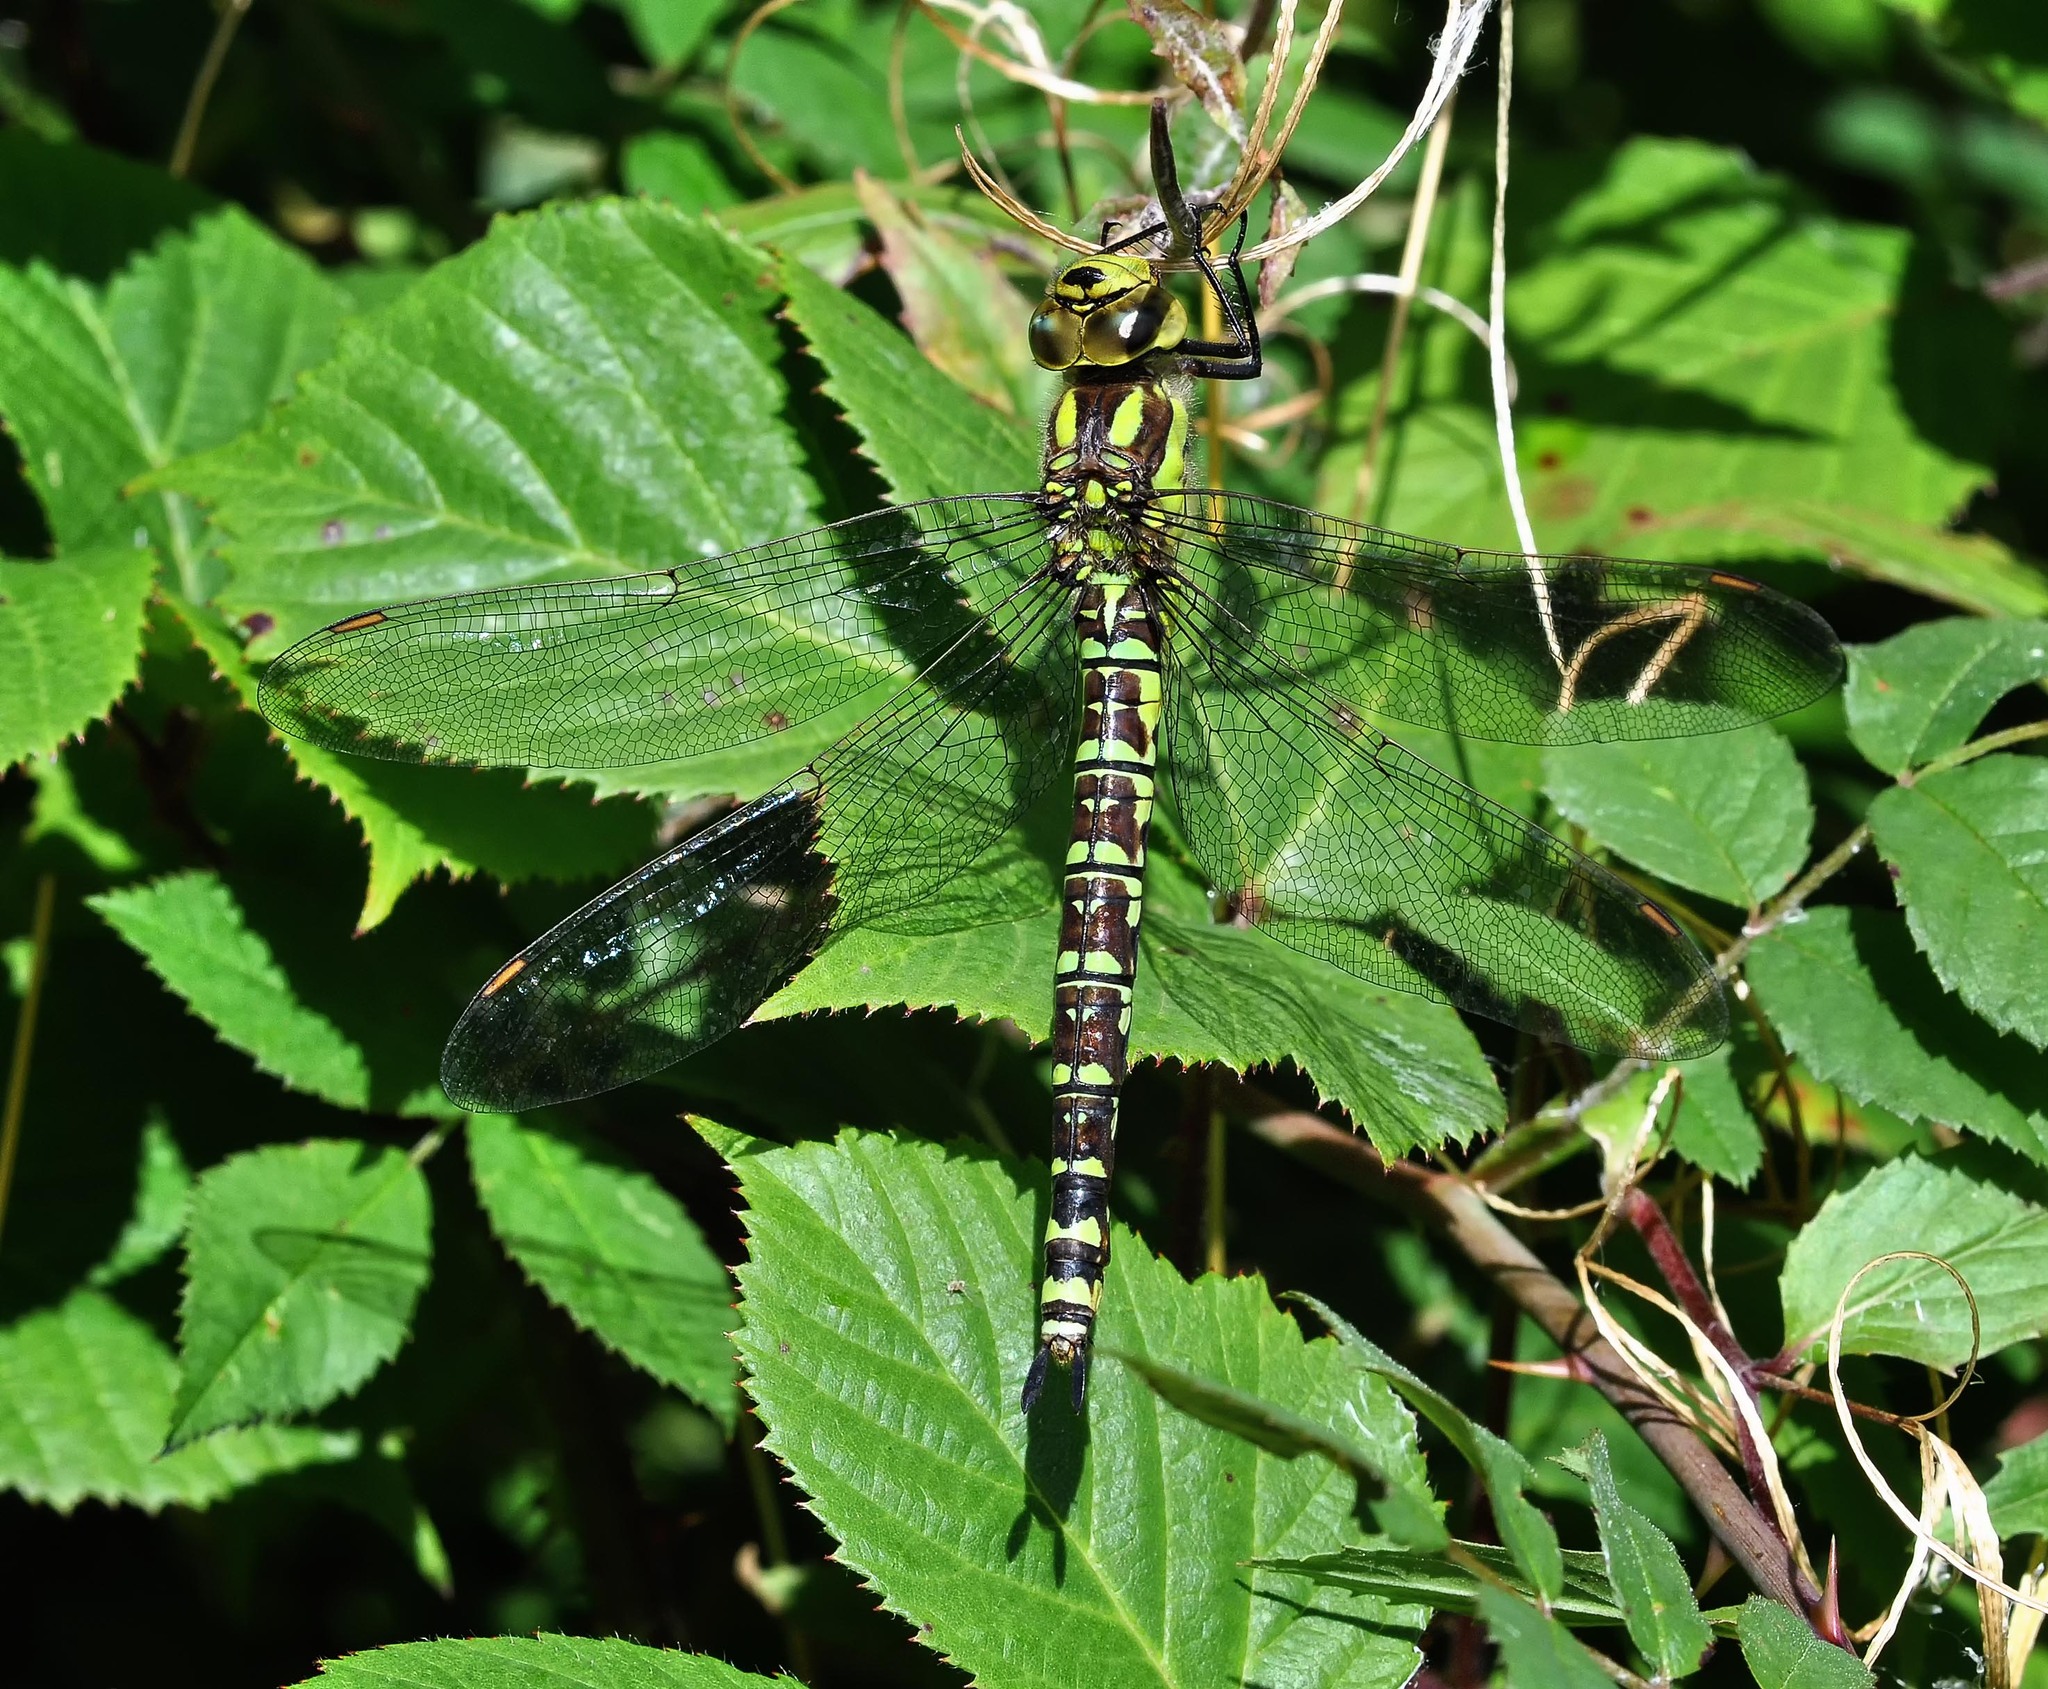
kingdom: Animalia
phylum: Arthropoda
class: Insecta
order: Odonata
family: Aeshnidae
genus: Aeshna
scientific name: Aeshna cyanea
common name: Southern hawker
